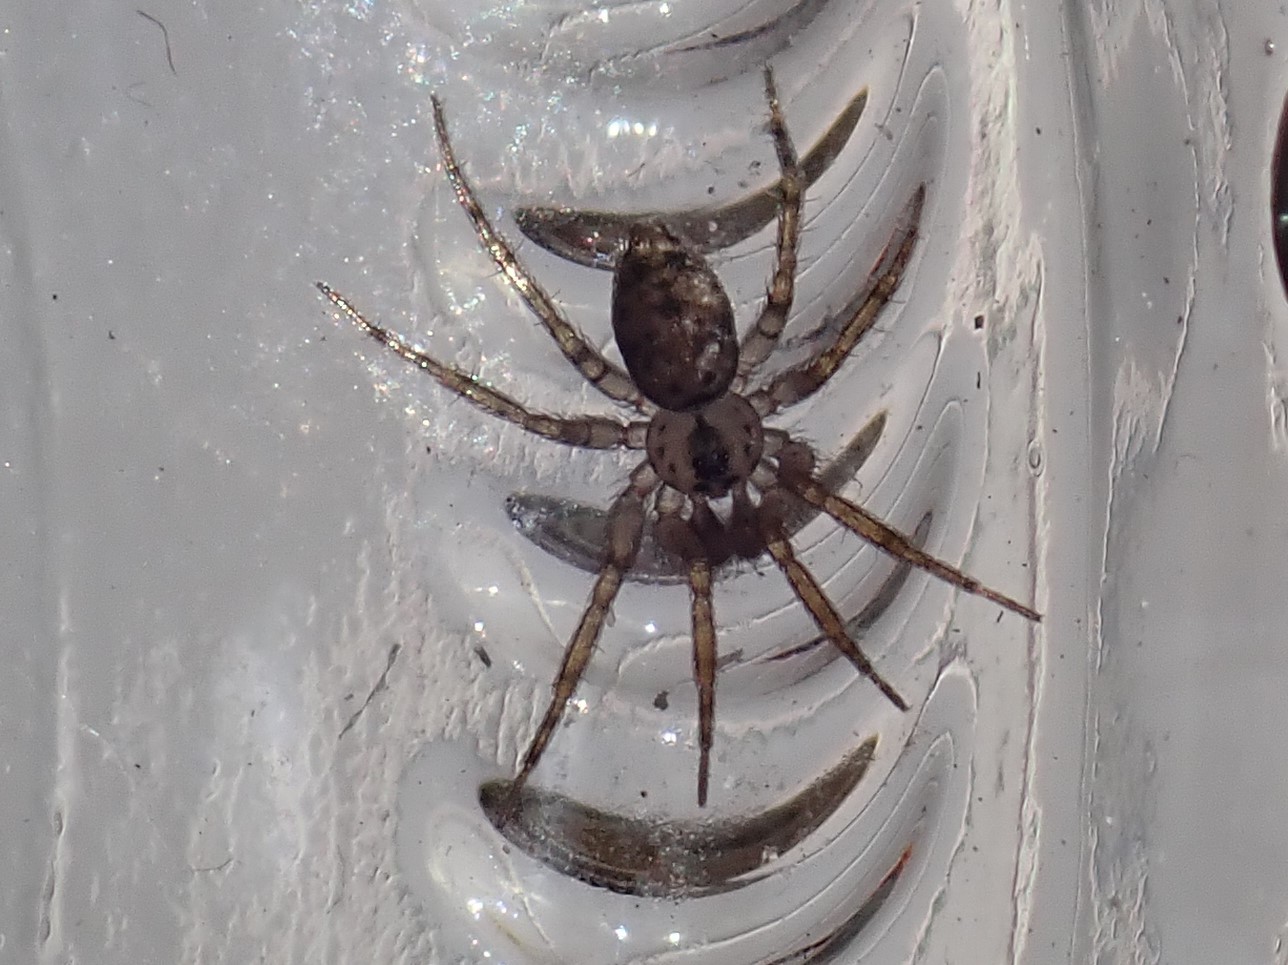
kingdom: Animalia
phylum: Arthropoda
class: Arachnida
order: Araneae
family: Oecobiidae
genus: Oecobius
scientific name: Oecobius navus
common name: Flatmesh weaver
